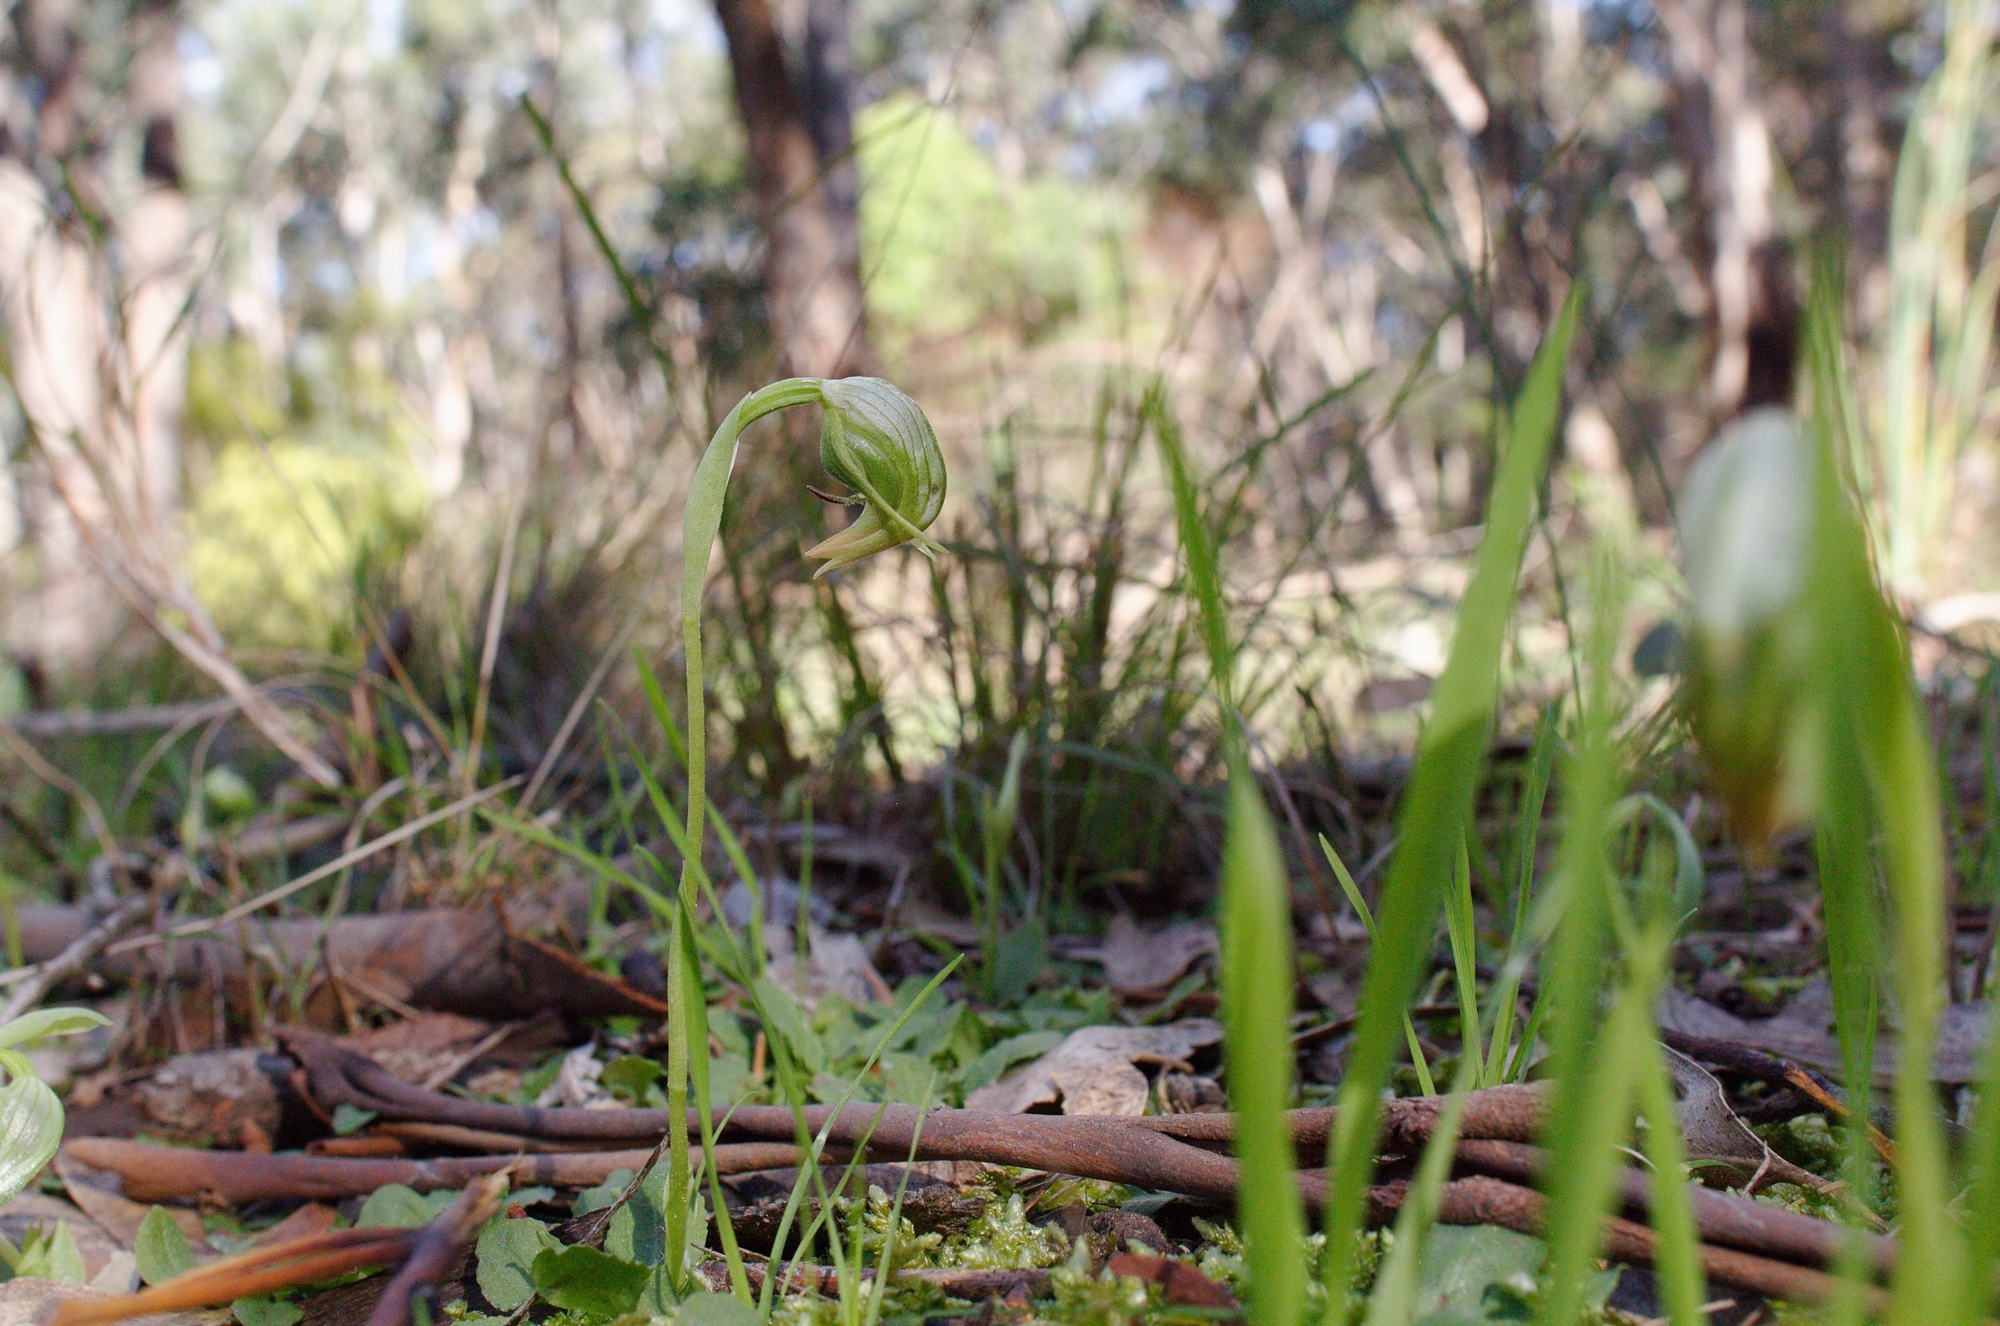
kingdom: Plantae
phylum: Tracheophyta
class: Liliopsida
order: Asparagales
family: Orchidaceae
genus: Pterostylis
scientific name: Pterostylis nutans
